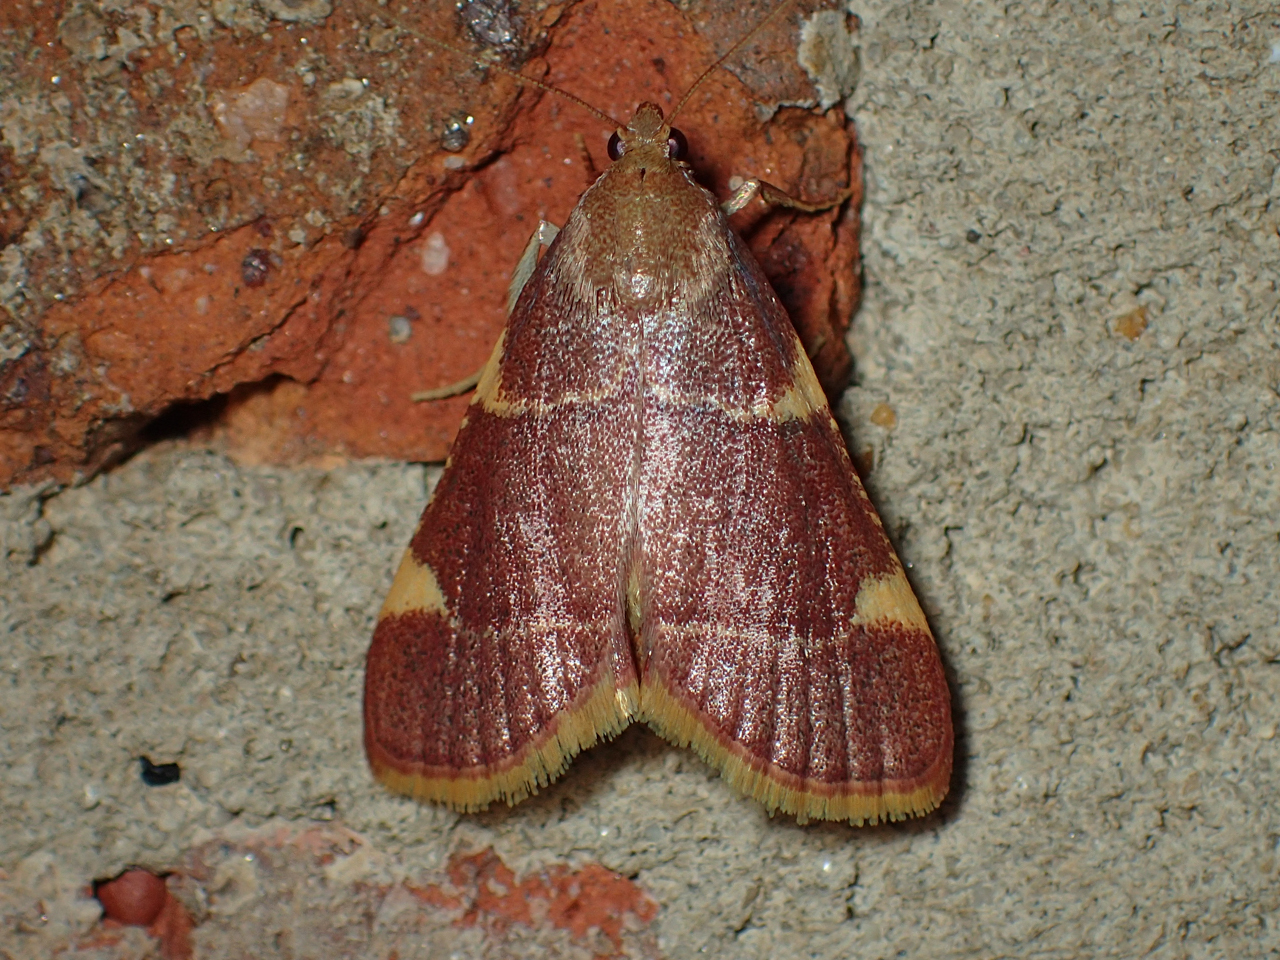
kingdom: Animalia
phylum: Arthropoda
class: Insecta
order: Lepidoptera
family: Pyralidae
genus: Hypsopygia
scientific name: Hypsopygia olinalis
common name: Yellow-fringed dolichomia moth
